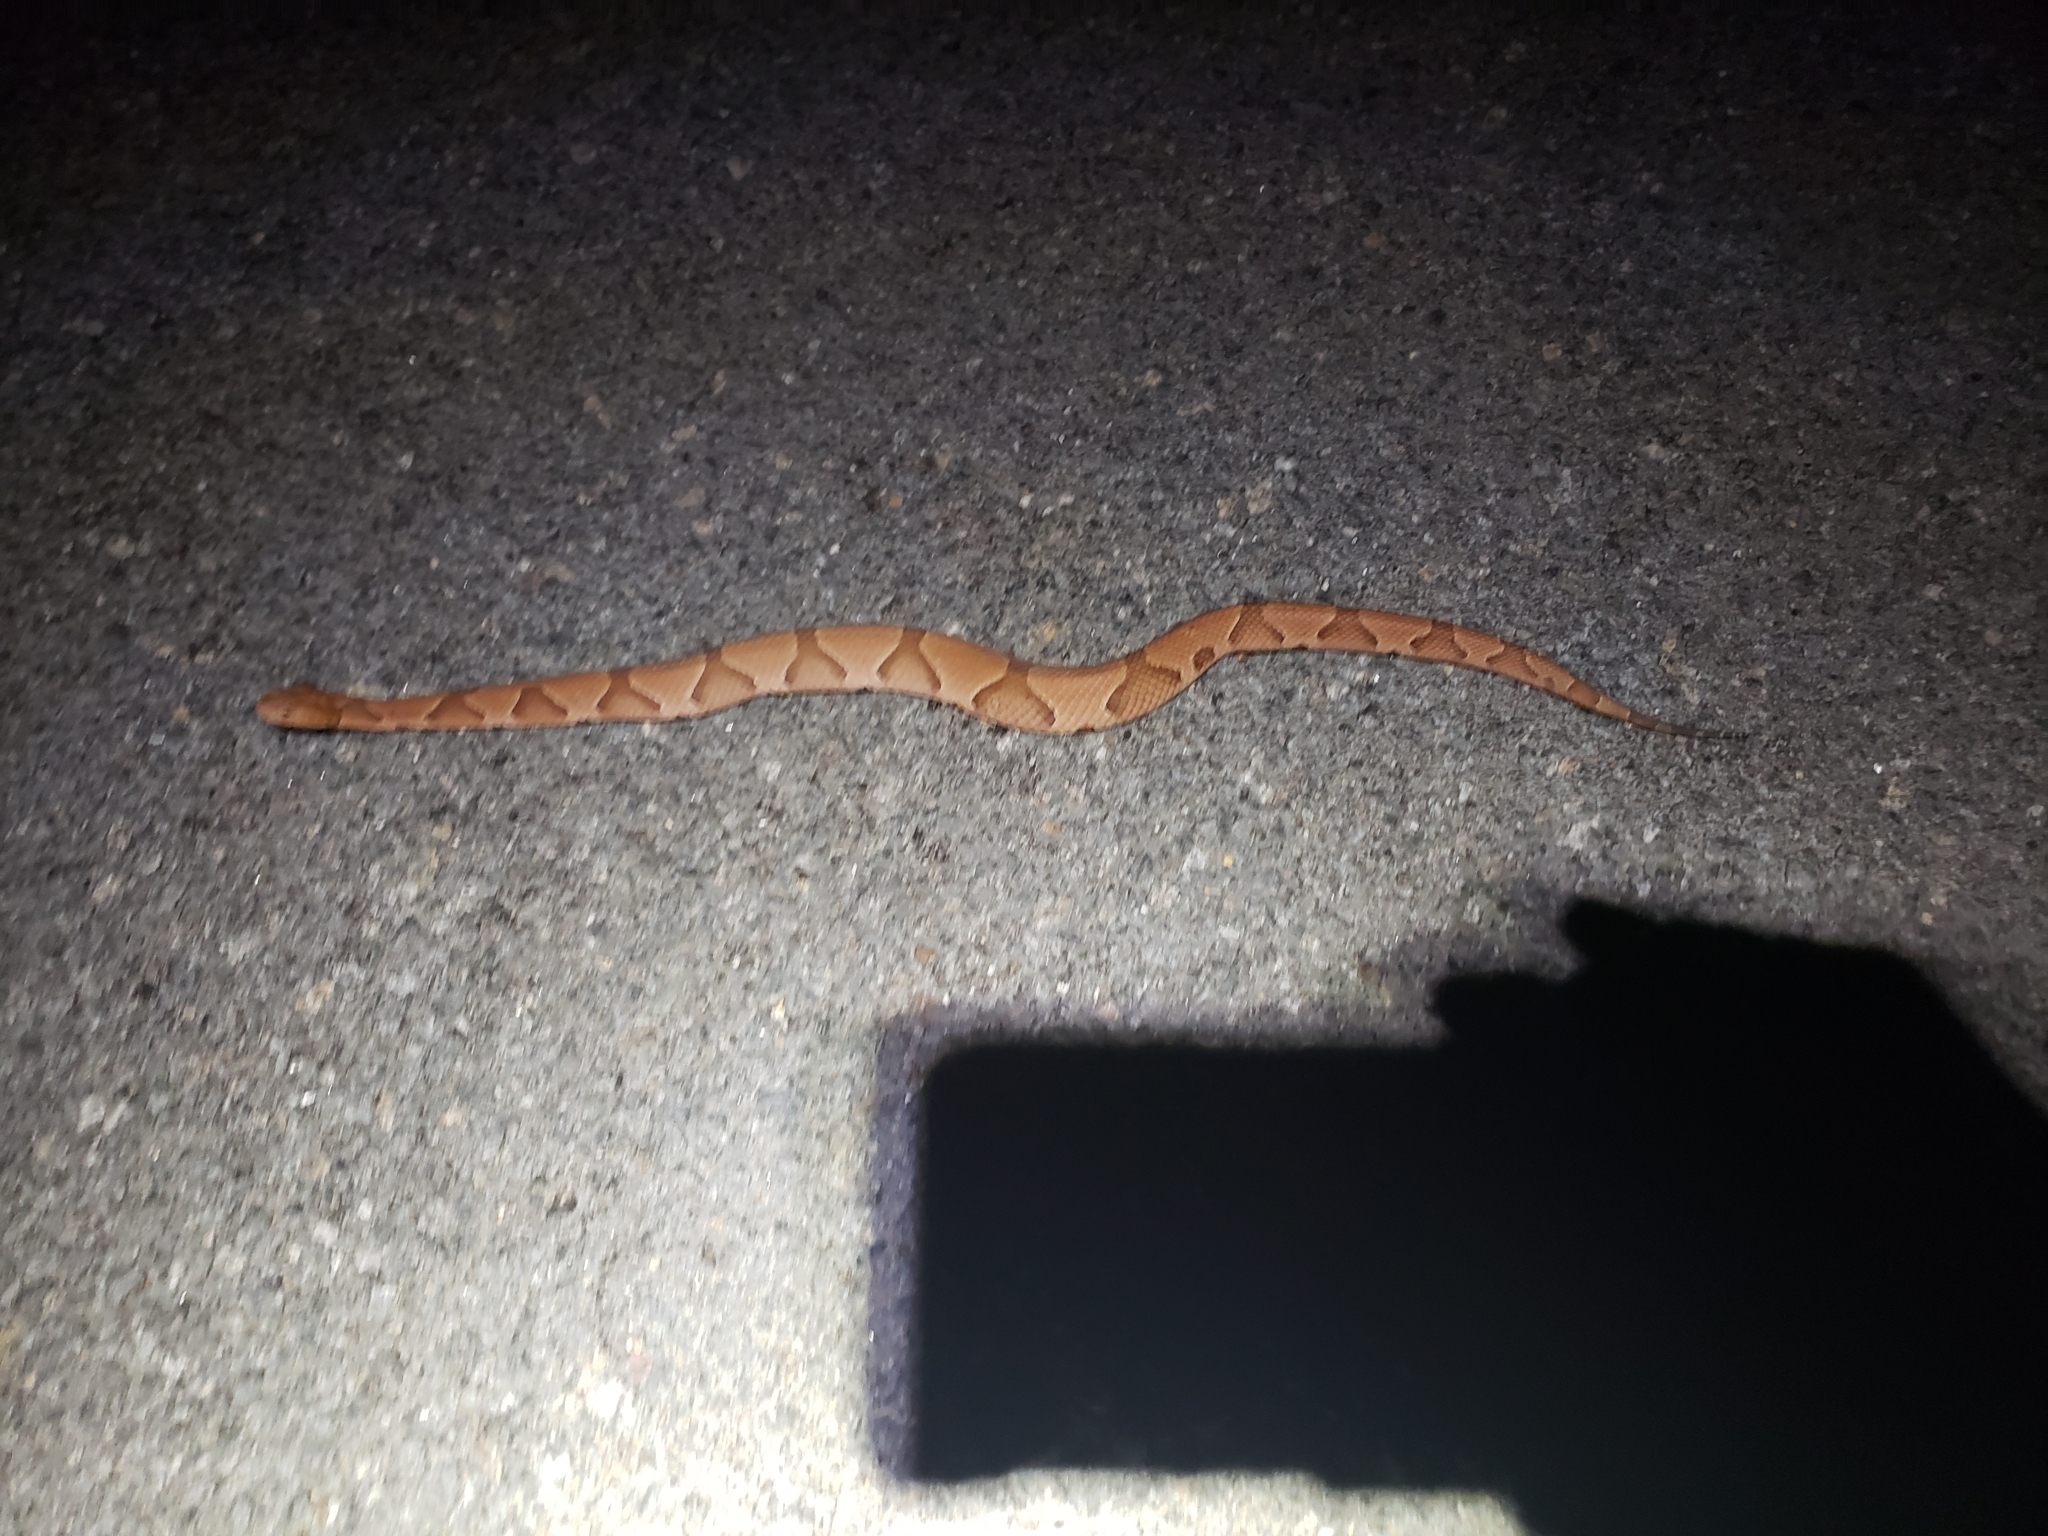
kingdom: Animalia
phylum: Chordata
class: Squamata
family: Viperidae
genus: Agkistrodon
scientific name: Agkistrodon contortrix
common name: Northern copperhead
